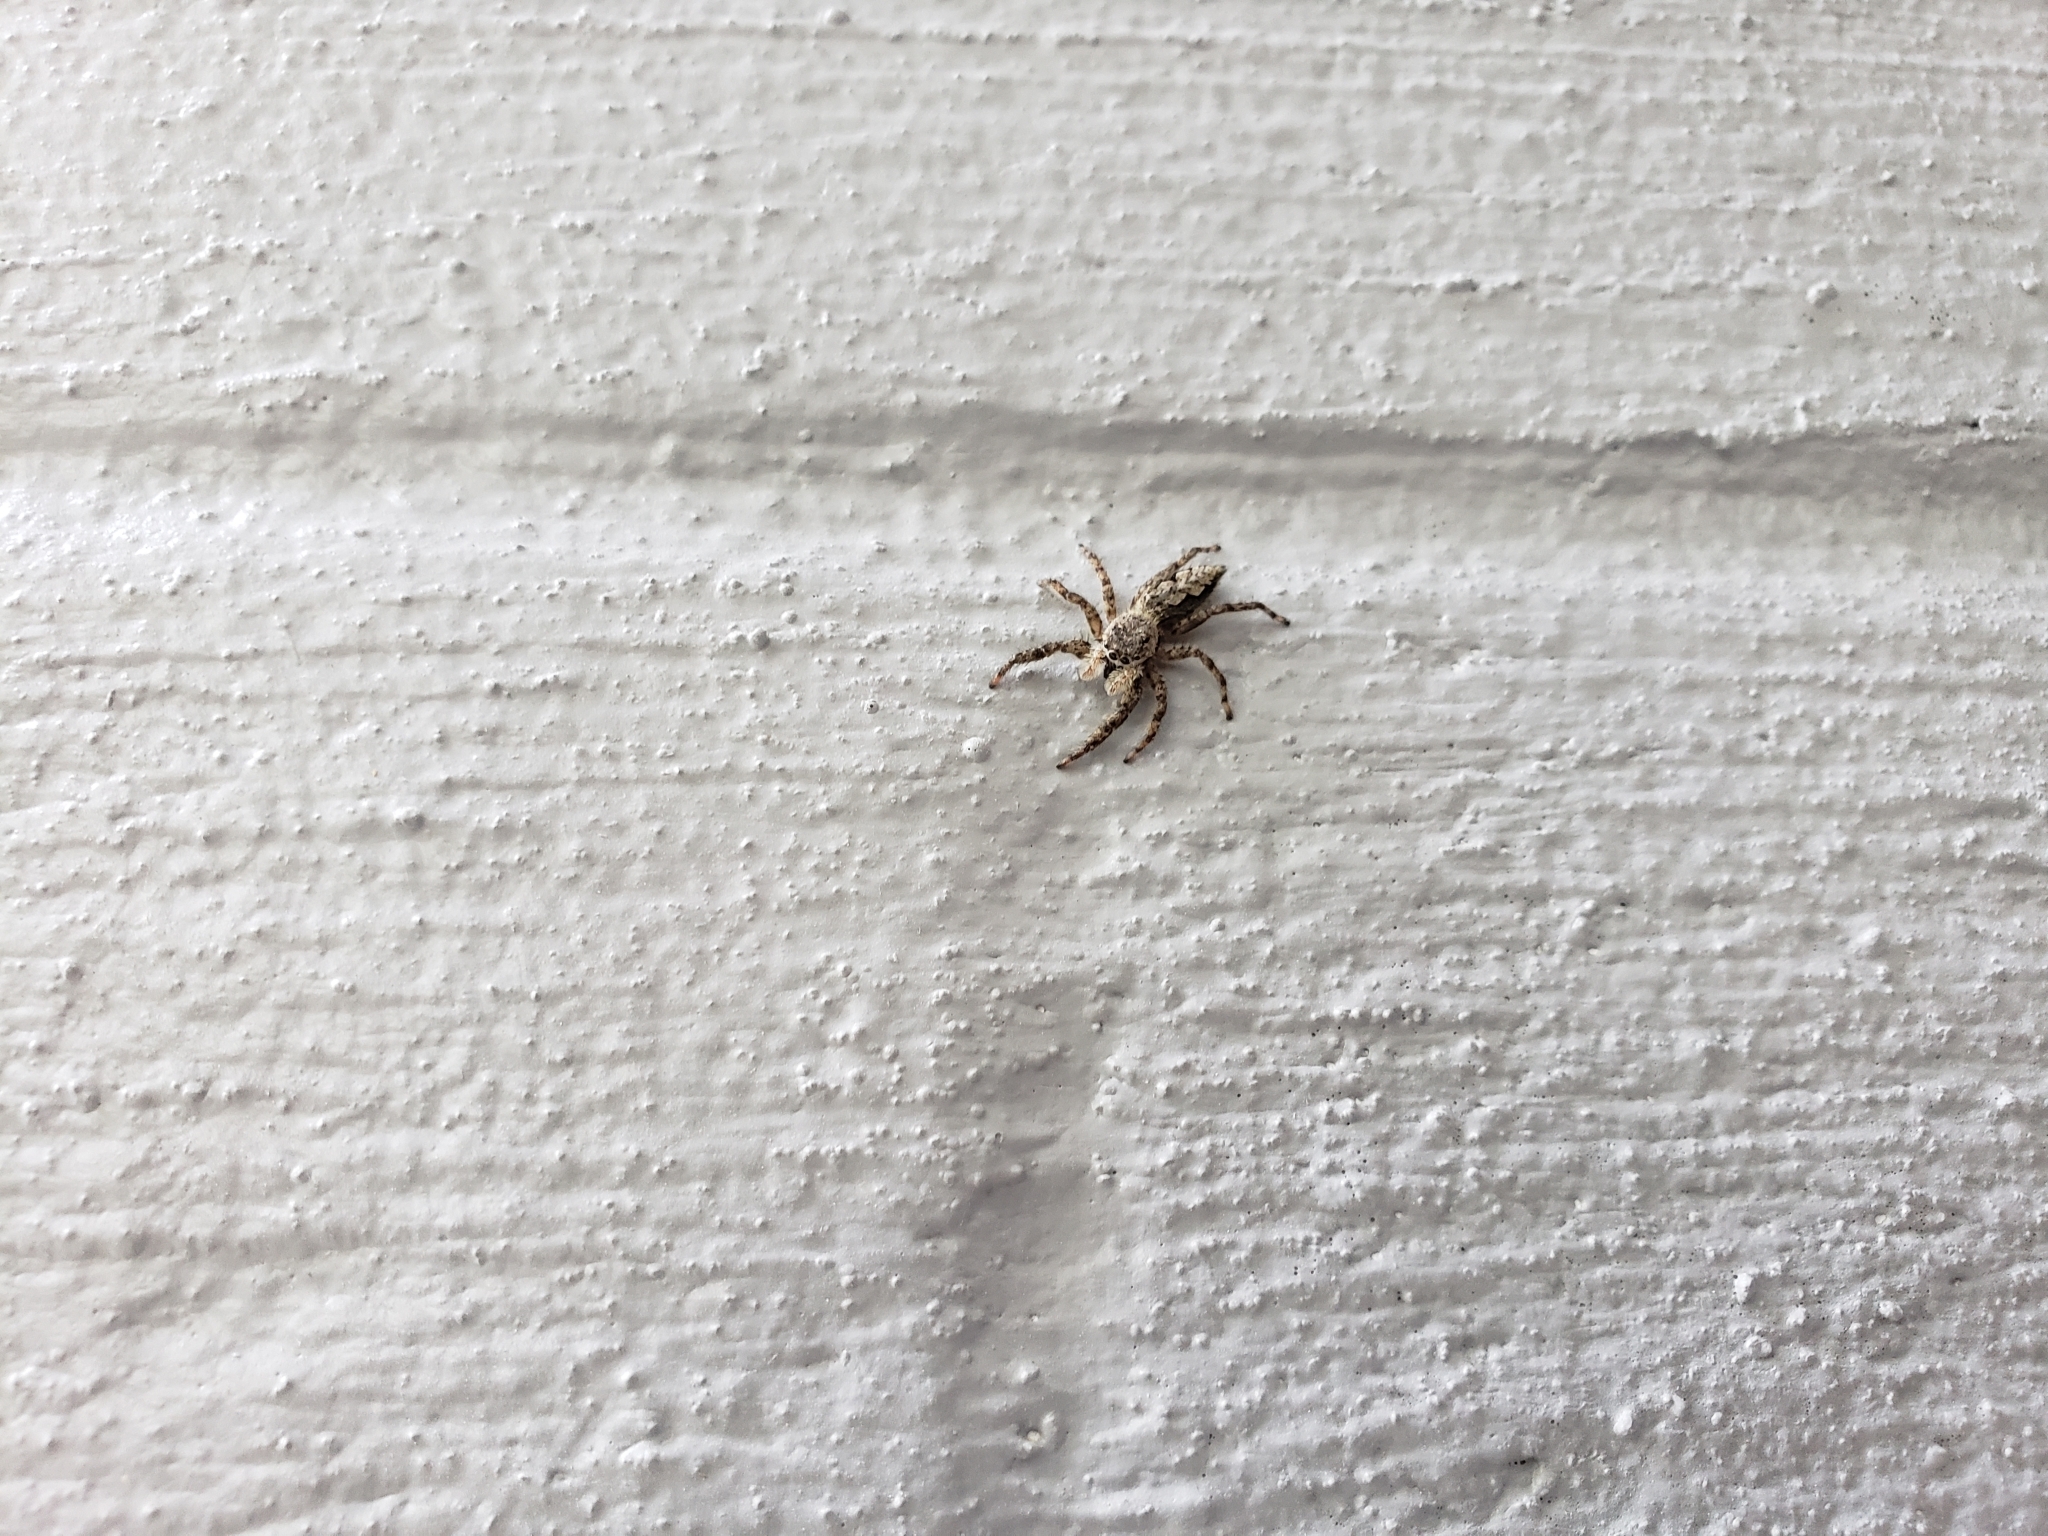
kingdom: Animalia
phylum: Arthropoda
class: Arachnida
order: Araneae
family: Salticidae
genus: Platycryptus
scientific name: Platycryptus undatus
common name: Tan jumping spider
